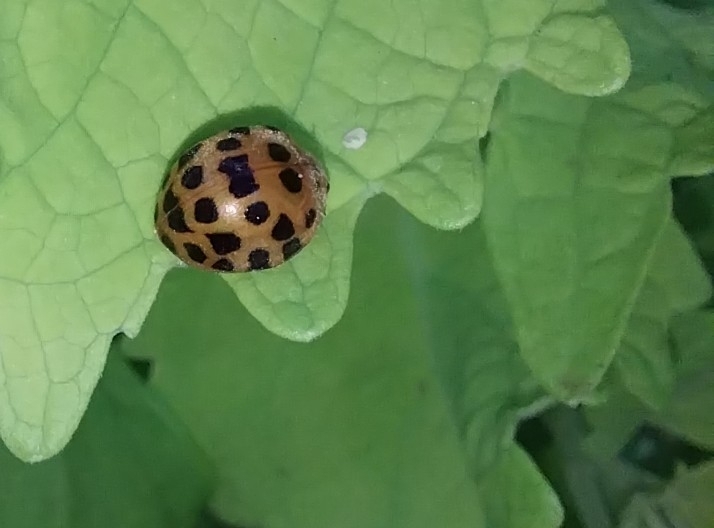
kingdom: Animalia
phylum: Arthropoda
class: Insecta
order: Coleoptera
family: Coccinellidae
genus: Henosepilachna
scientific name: Henosepilachna vigintioctomaculata
